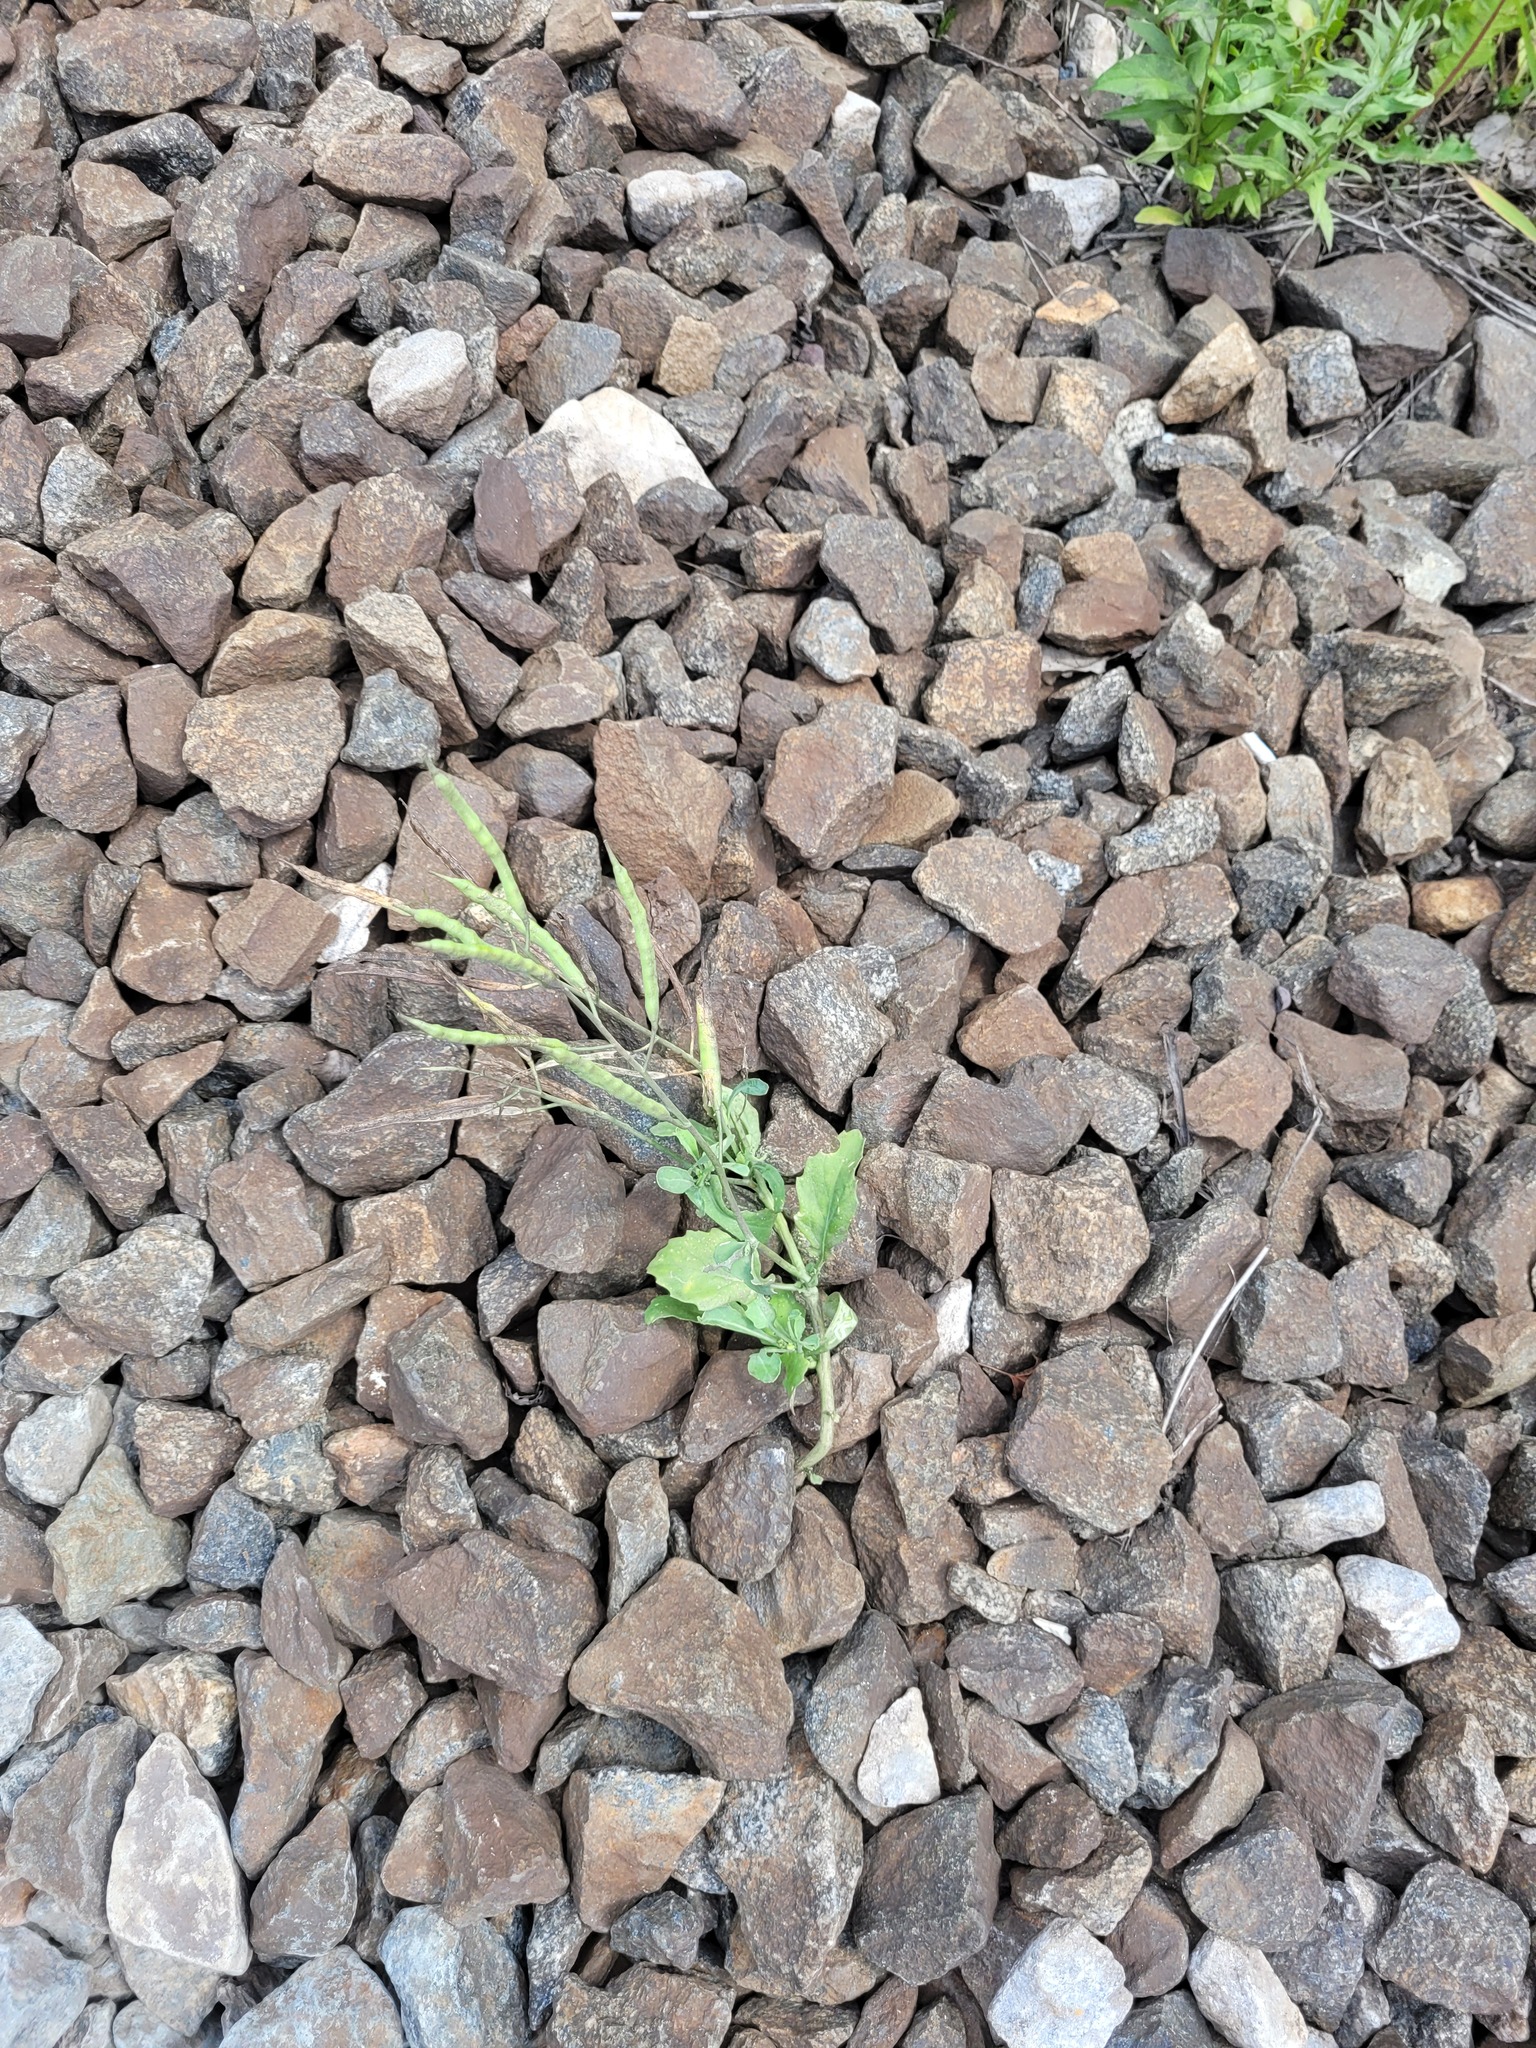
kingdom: Plantae
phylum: Tracheophyta
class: Magnoliopsida
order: Brassicales
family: Brassicaceae
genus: Brassica
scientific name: Brassica napus
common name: Rape
